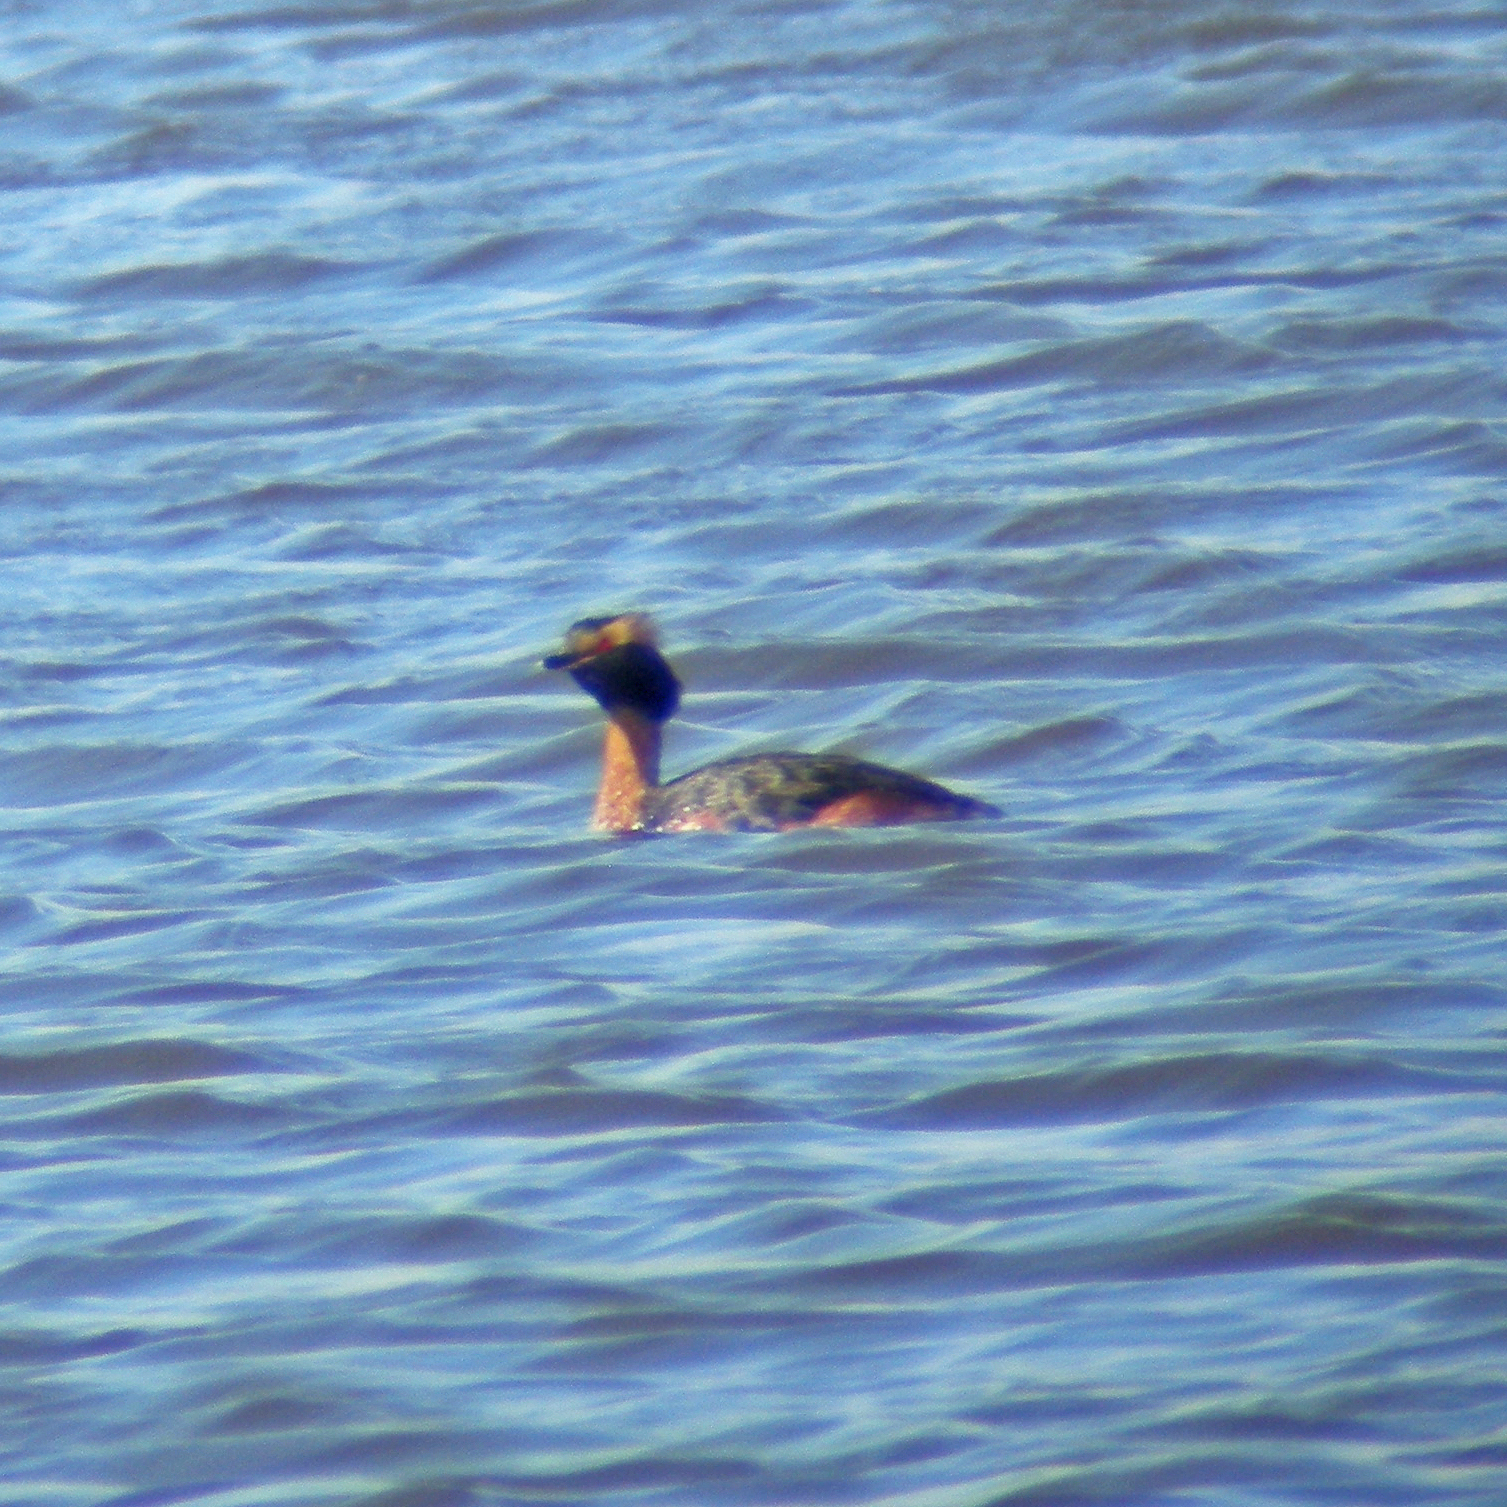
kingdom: Animalia
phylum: Chordata
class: Aves
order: Podicipediformes
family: Podicipedidae
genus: Podiceps
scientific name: Podiceps auritus
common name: Horned grebe
